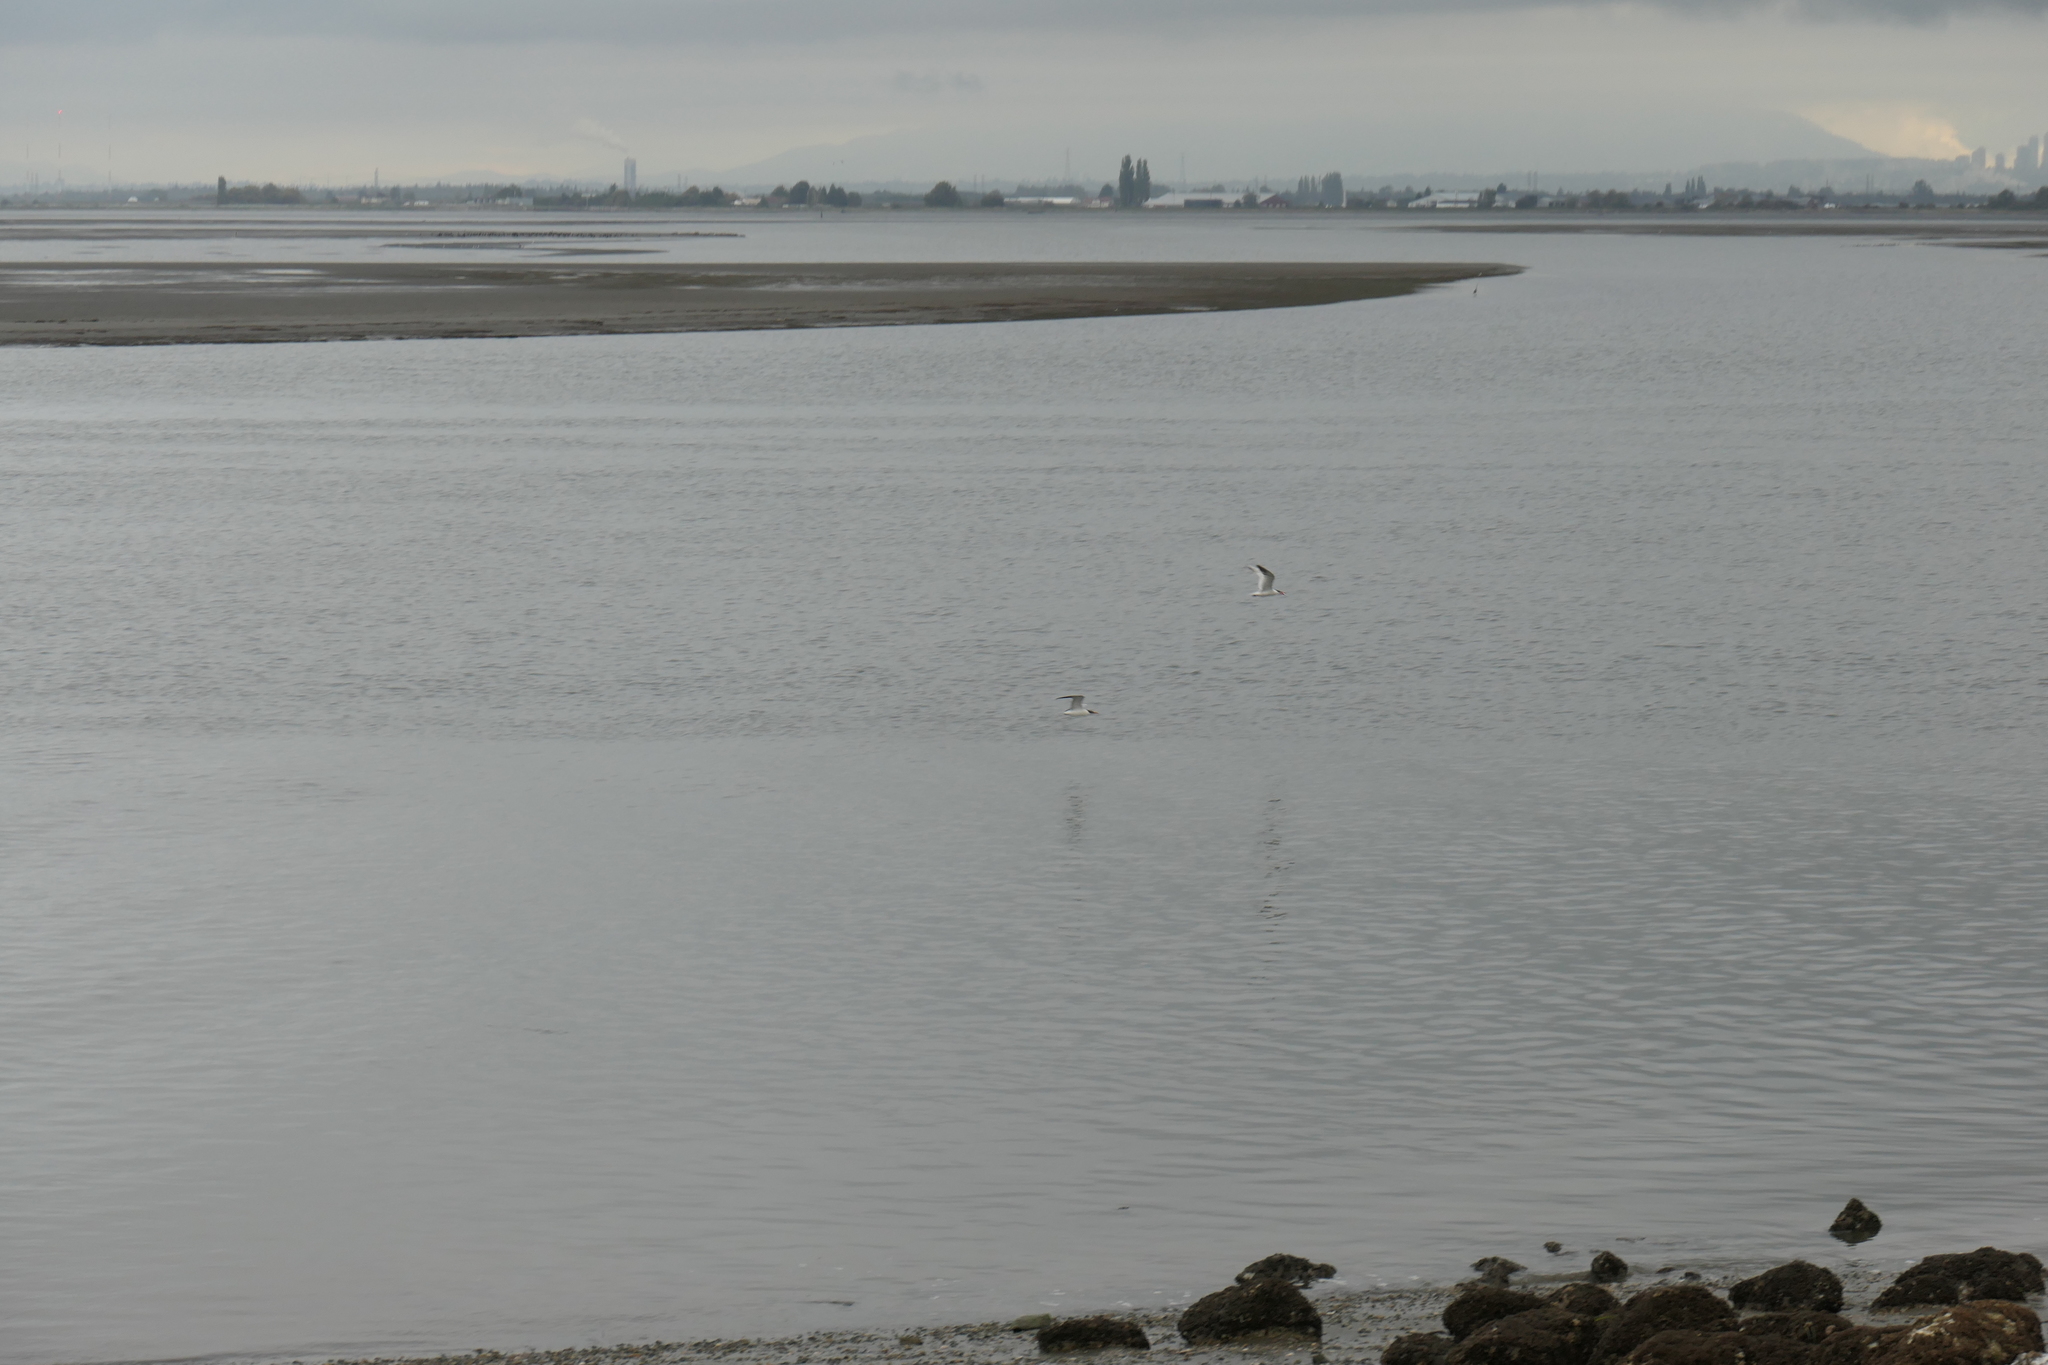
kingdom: Animalia
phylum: Chordata
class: Aves
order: Charadriiformes
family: Laridae
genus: Hydroprogne
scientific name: Hydroprogne caspia
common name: Caspian tern
